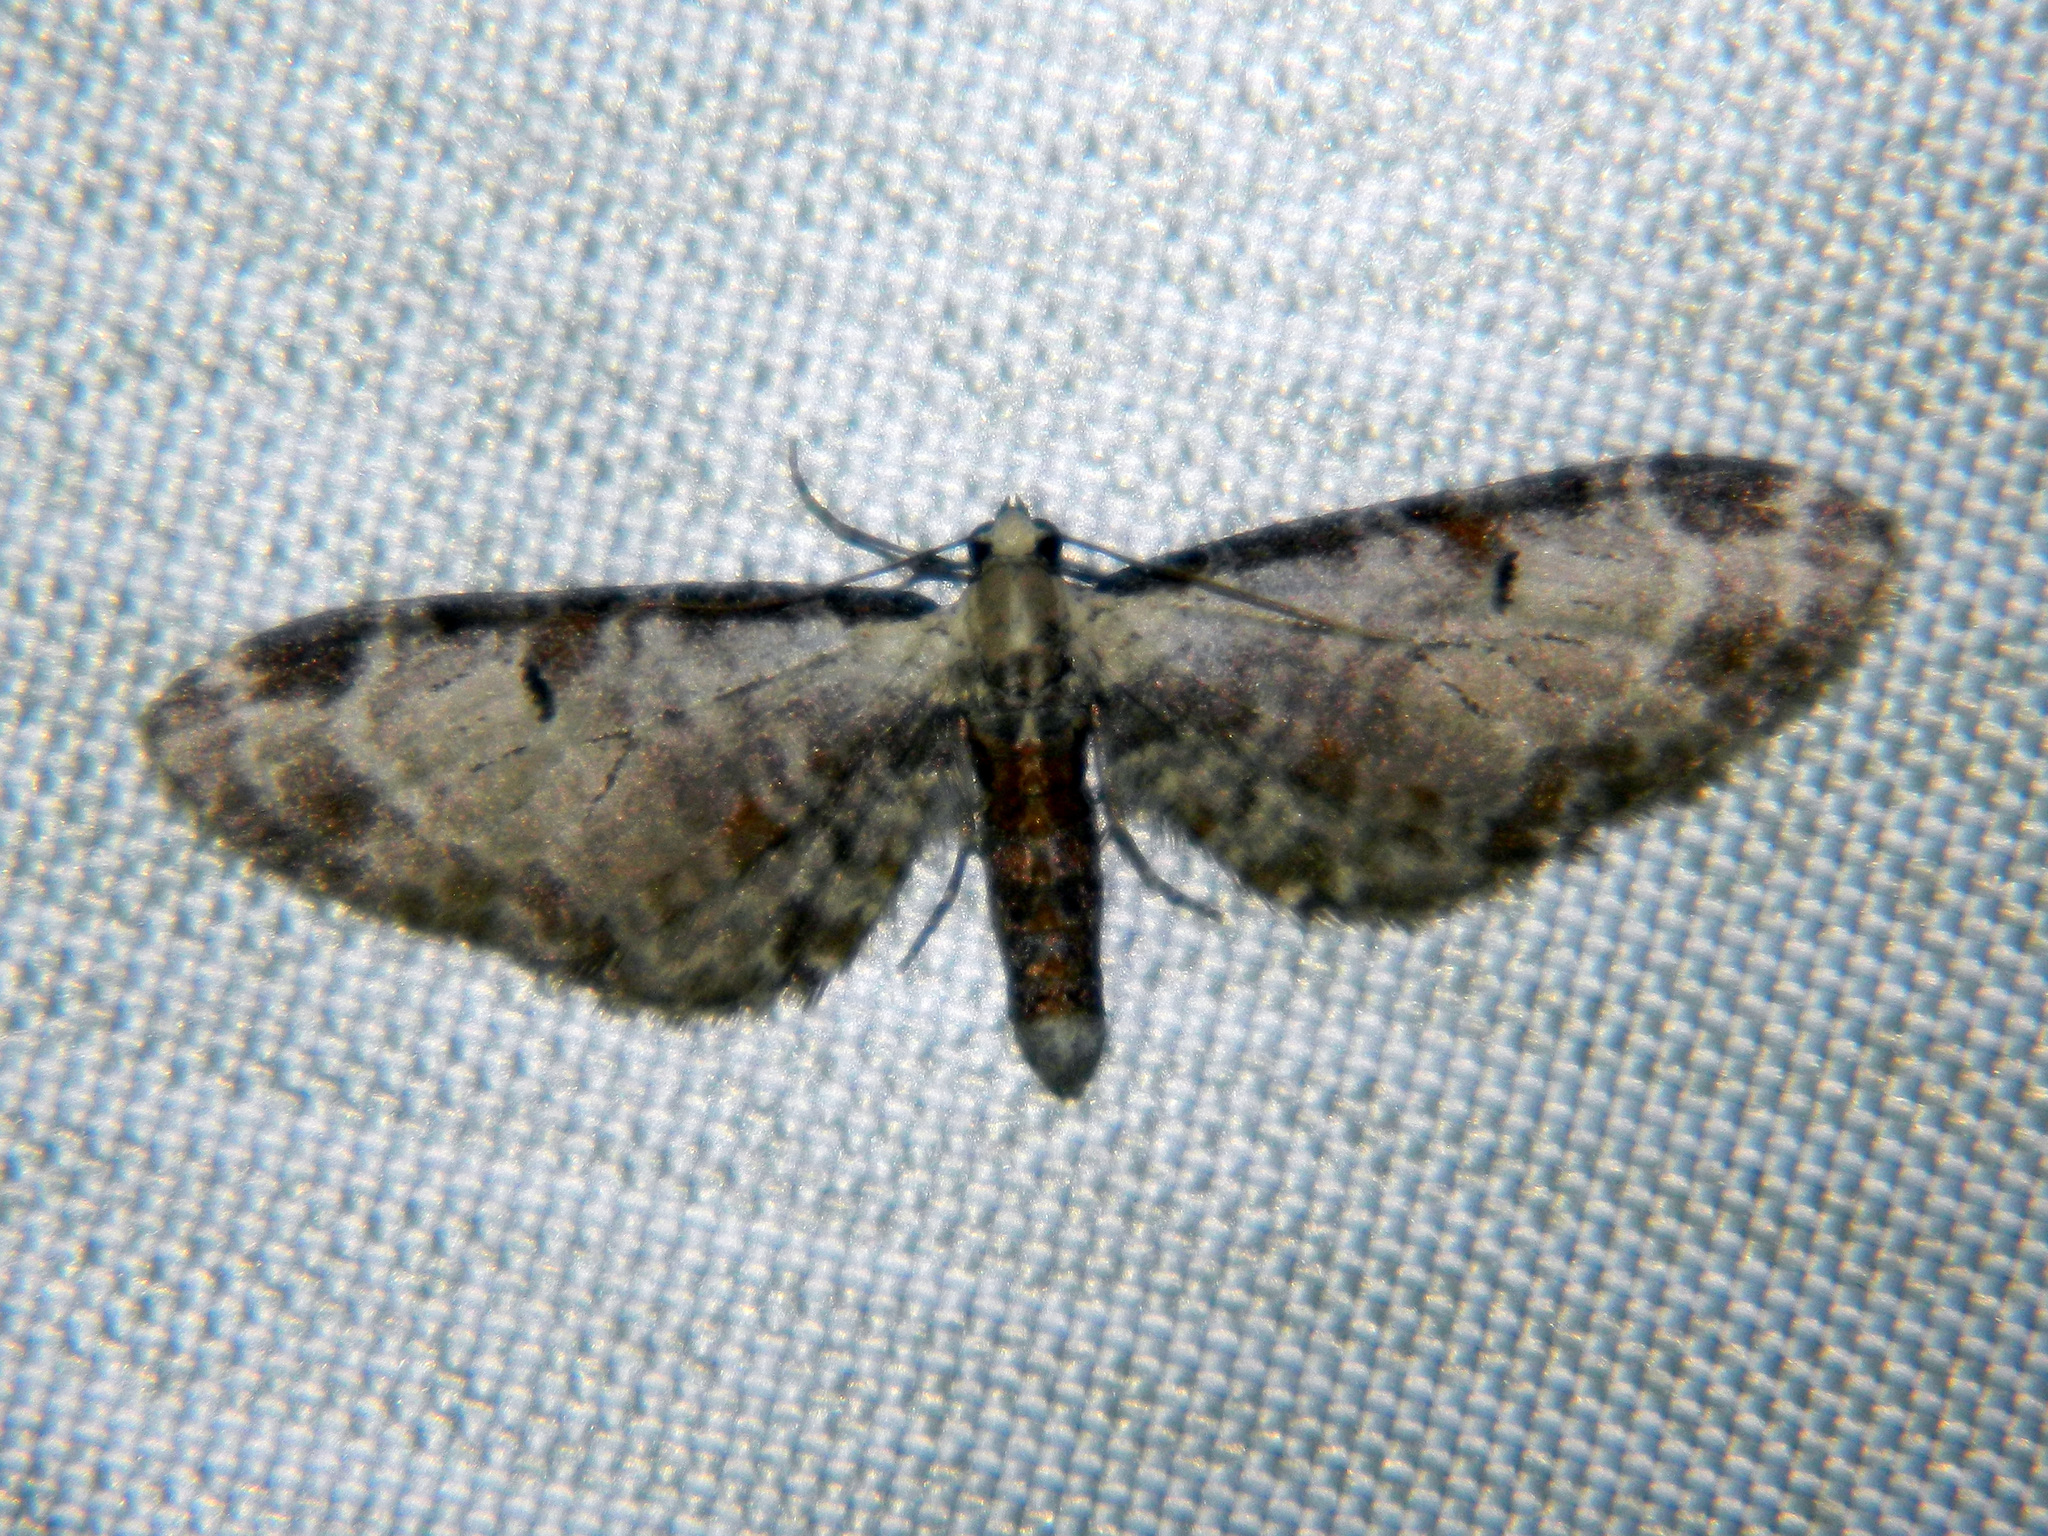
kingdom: Animalia
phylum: Arthropoda
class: Insecta
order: Lepidoptera
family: Geometridae
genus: Eupithecia
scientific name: Eupithecia ravocostaliata
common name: Great varigated pug
